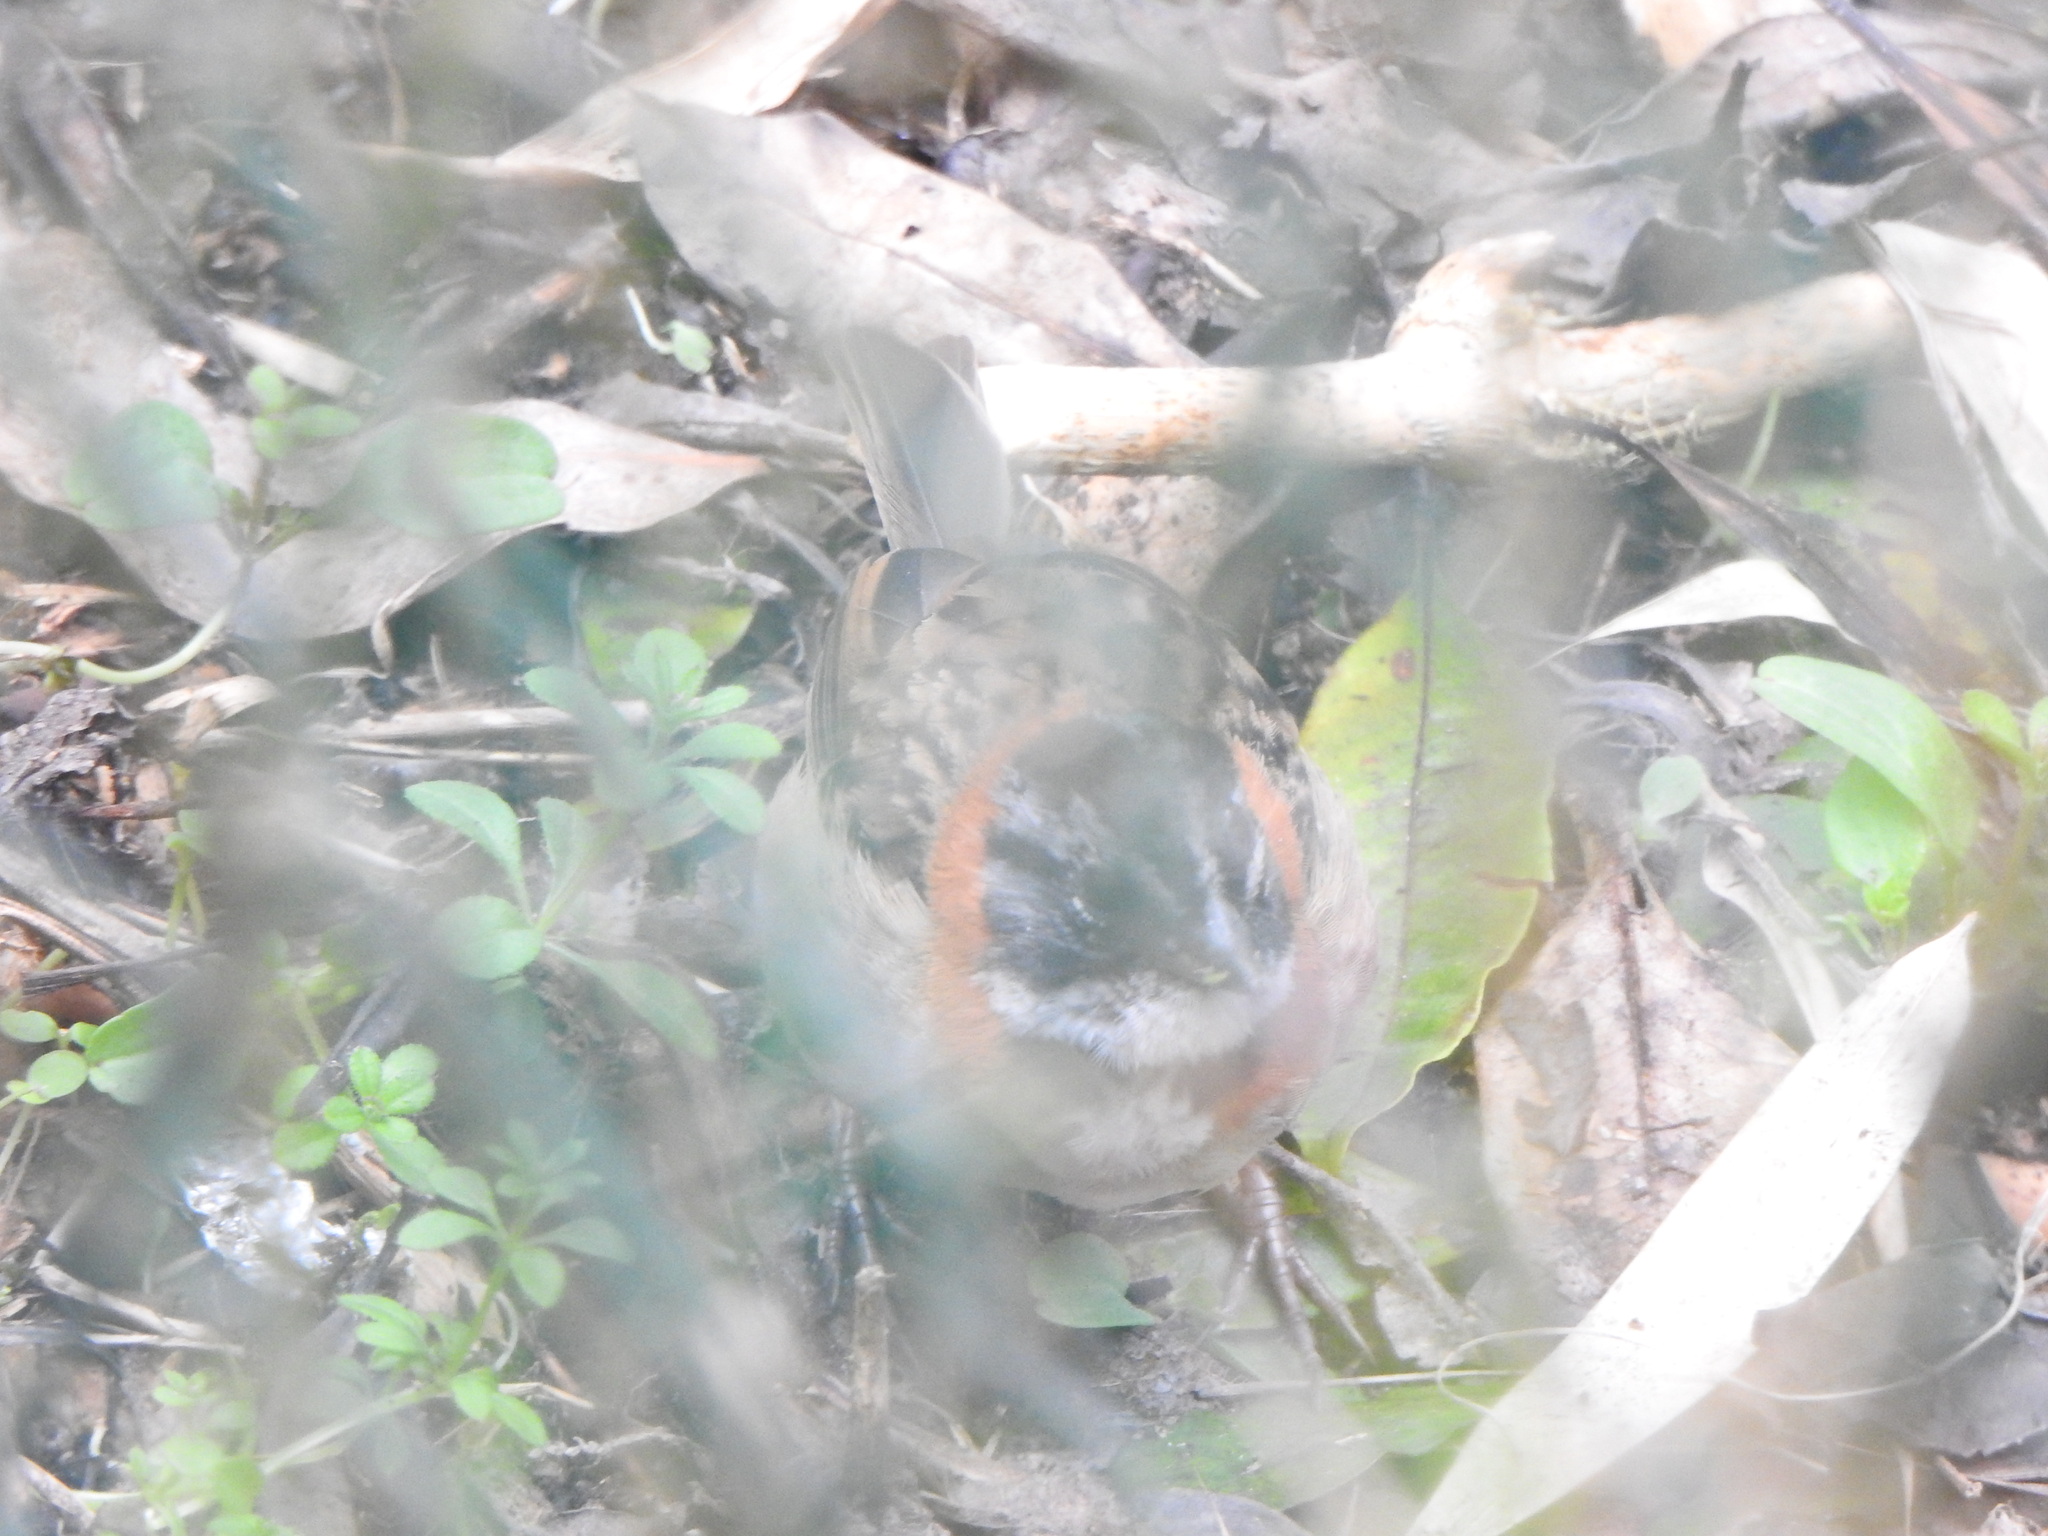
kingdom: Animalia
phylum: Chordata
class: Aves
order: Passeriformes
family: Passerellidae
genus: Zonotrichia
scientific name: Zonotrichia capensis
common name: Rufous-collared sparrow
